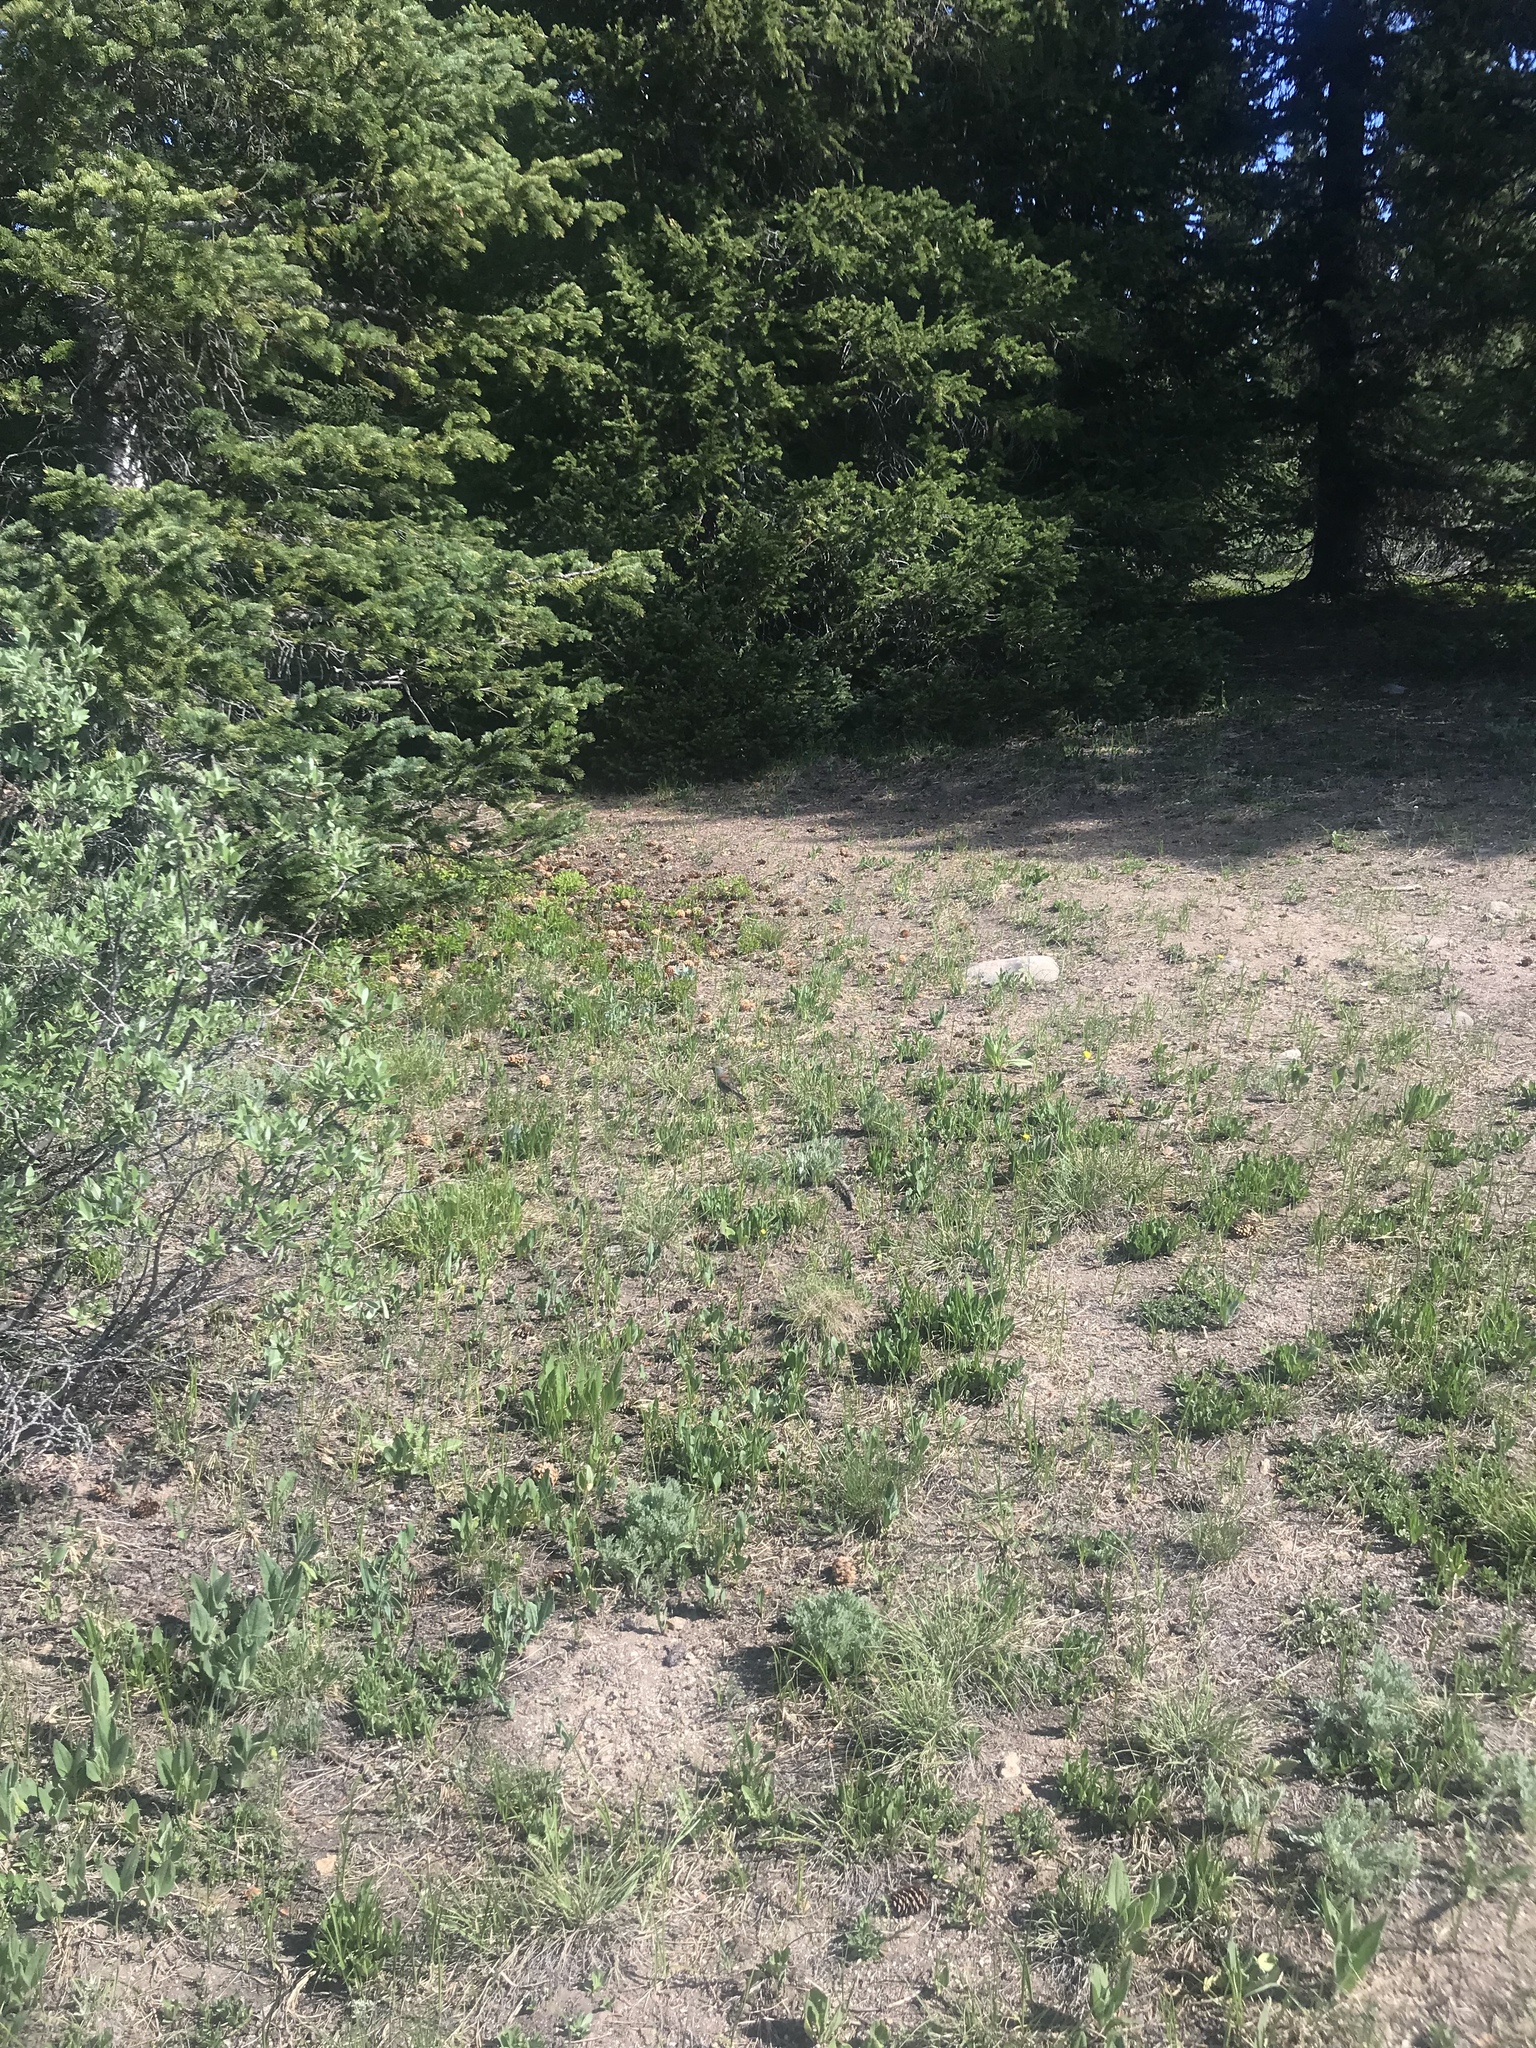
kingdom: Animalia
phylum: Chordata
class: Aves
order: Passeriformes
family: Passerellidae
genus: Junco
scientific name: Junco hyemalis
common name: Dark-eyed junco
